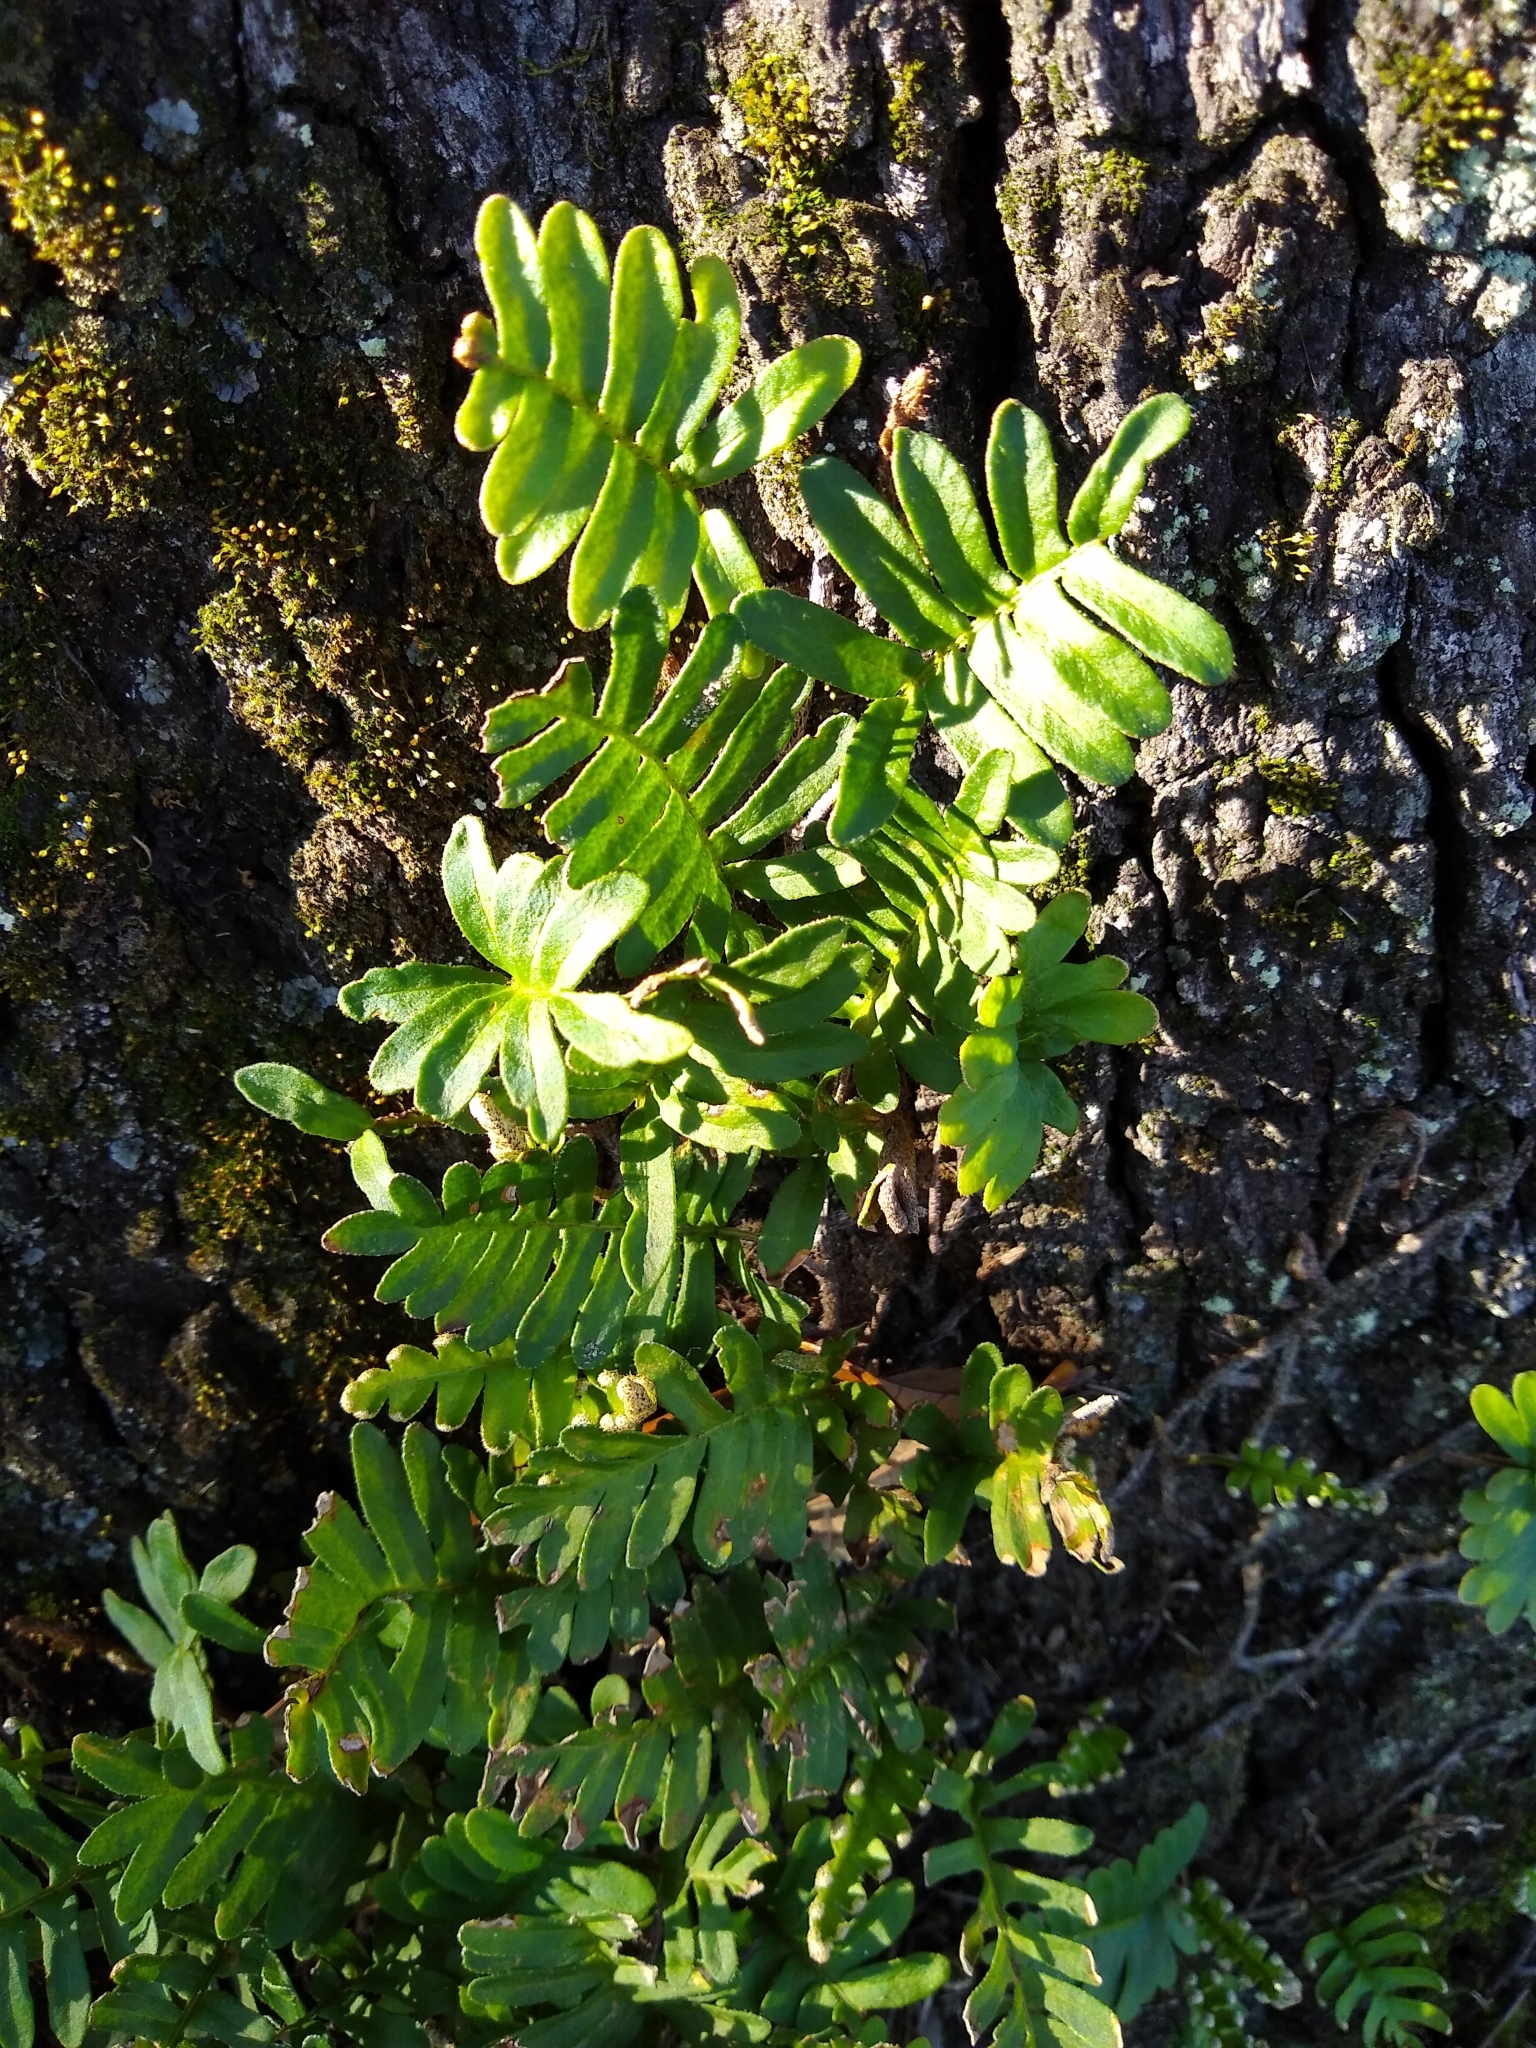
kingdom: Plantae
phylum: Tracheophyta
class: Polypodiopsida
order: Polypodiales
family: Polypodiaceae
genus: Pleopeltis
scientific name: Pleopeltis michauxiana
